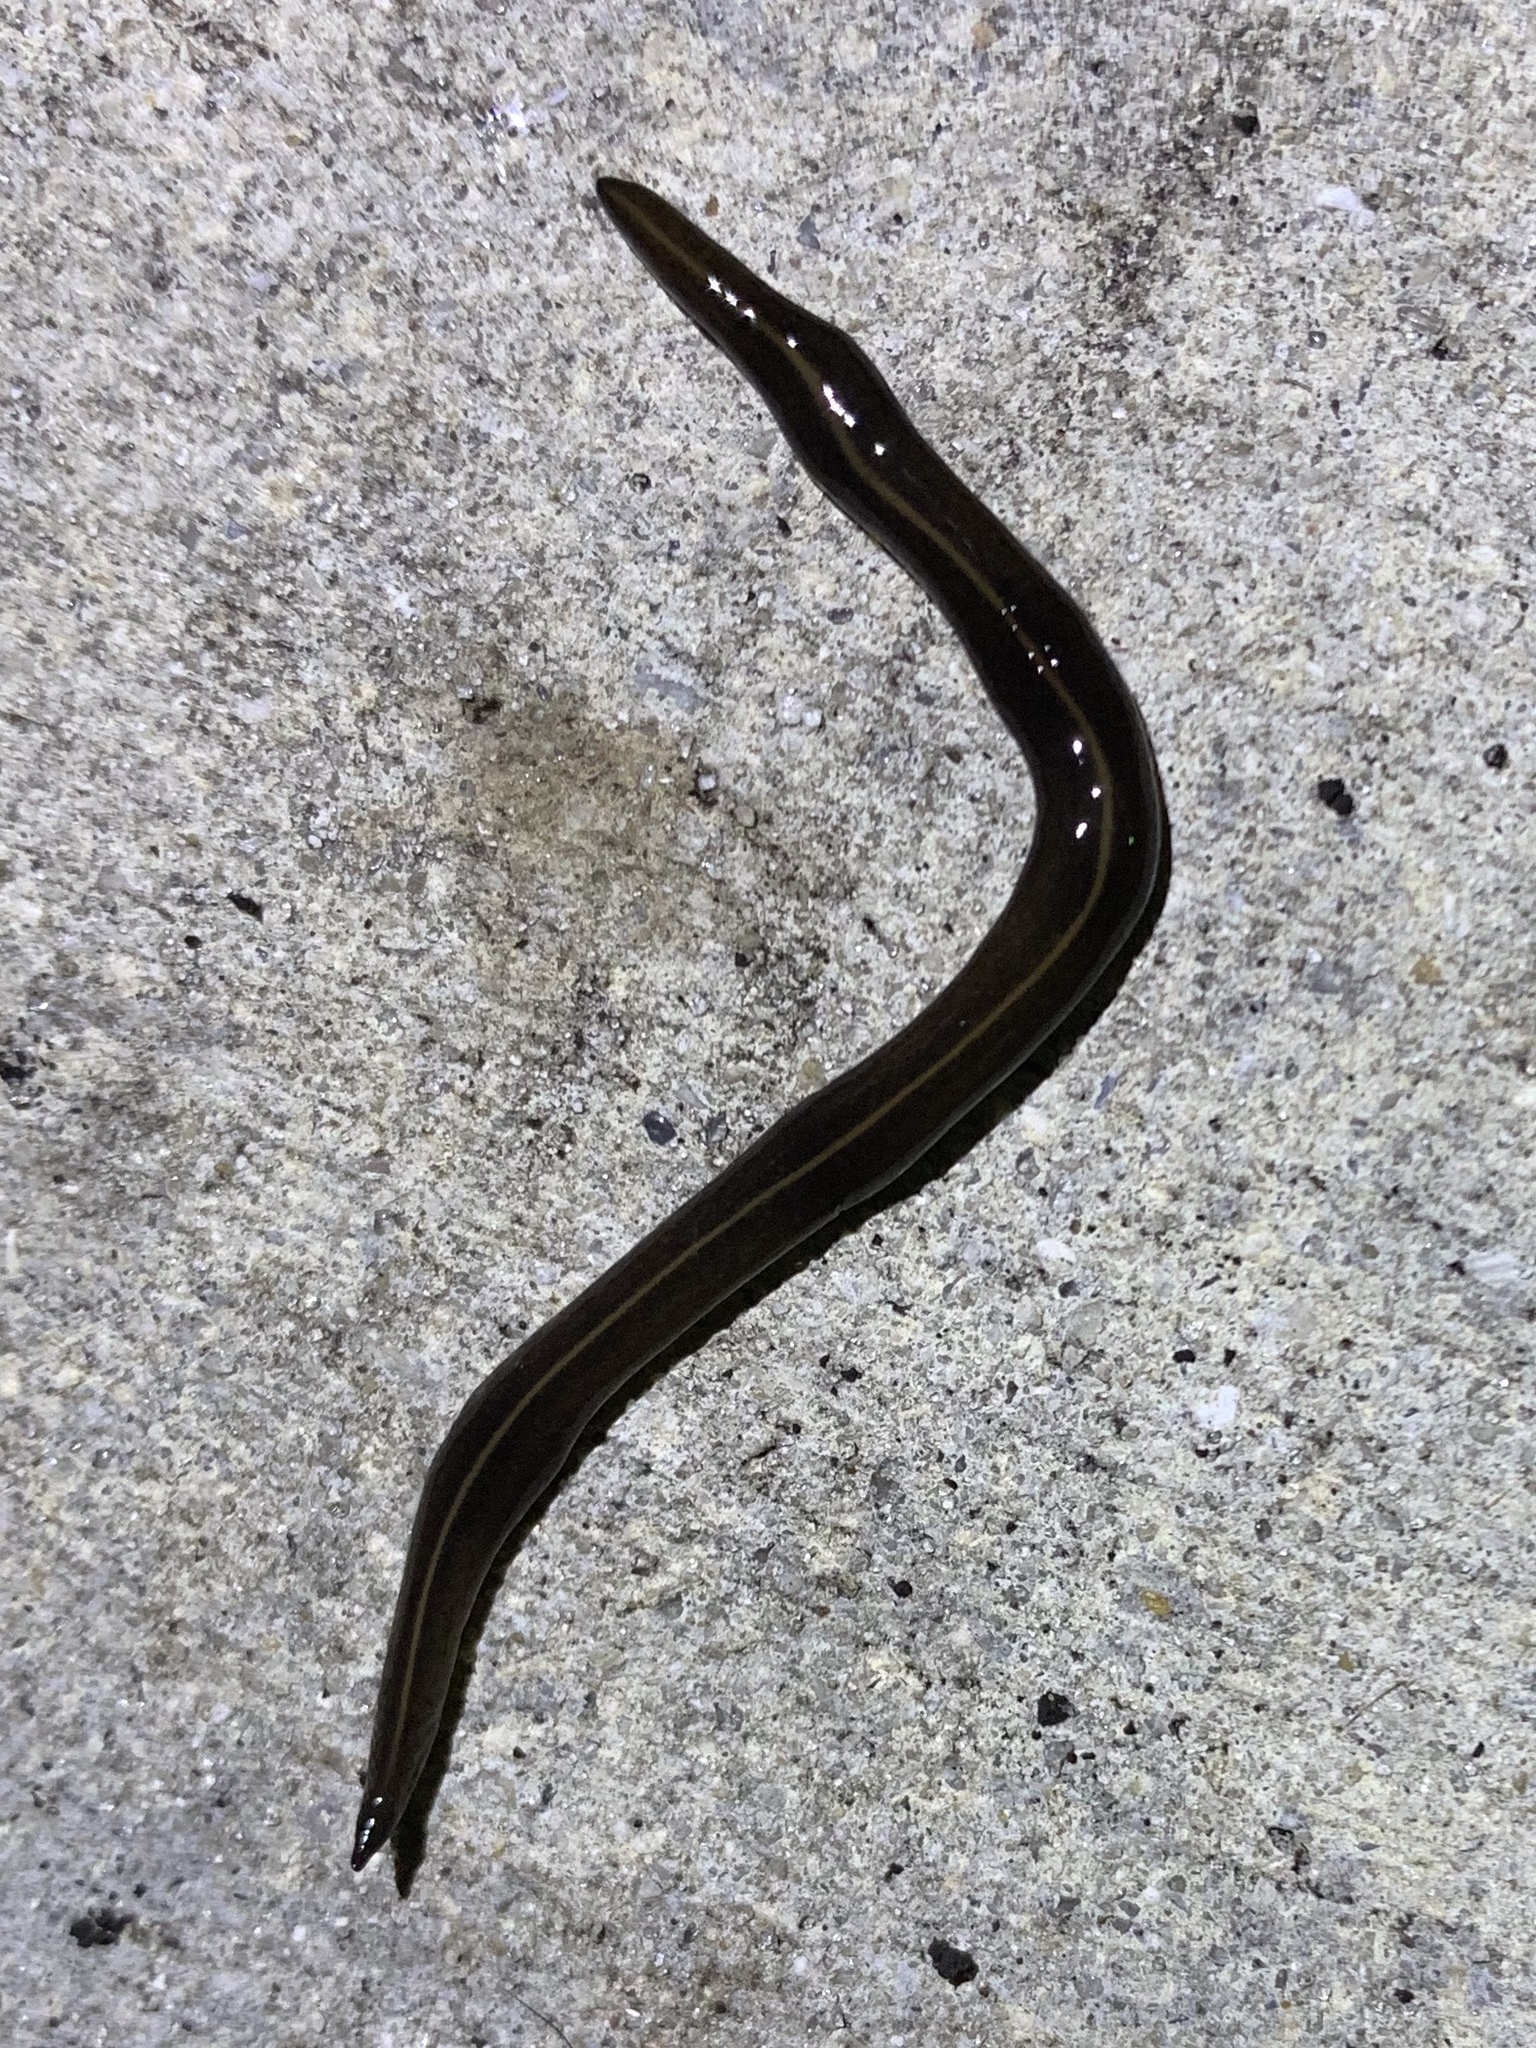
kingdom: Animalia
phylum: Platyhelminthes
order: Tricladida
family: Geoplanidae
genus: Platydemus
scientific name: Platydemus manokwari
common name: New guinea flatworm
